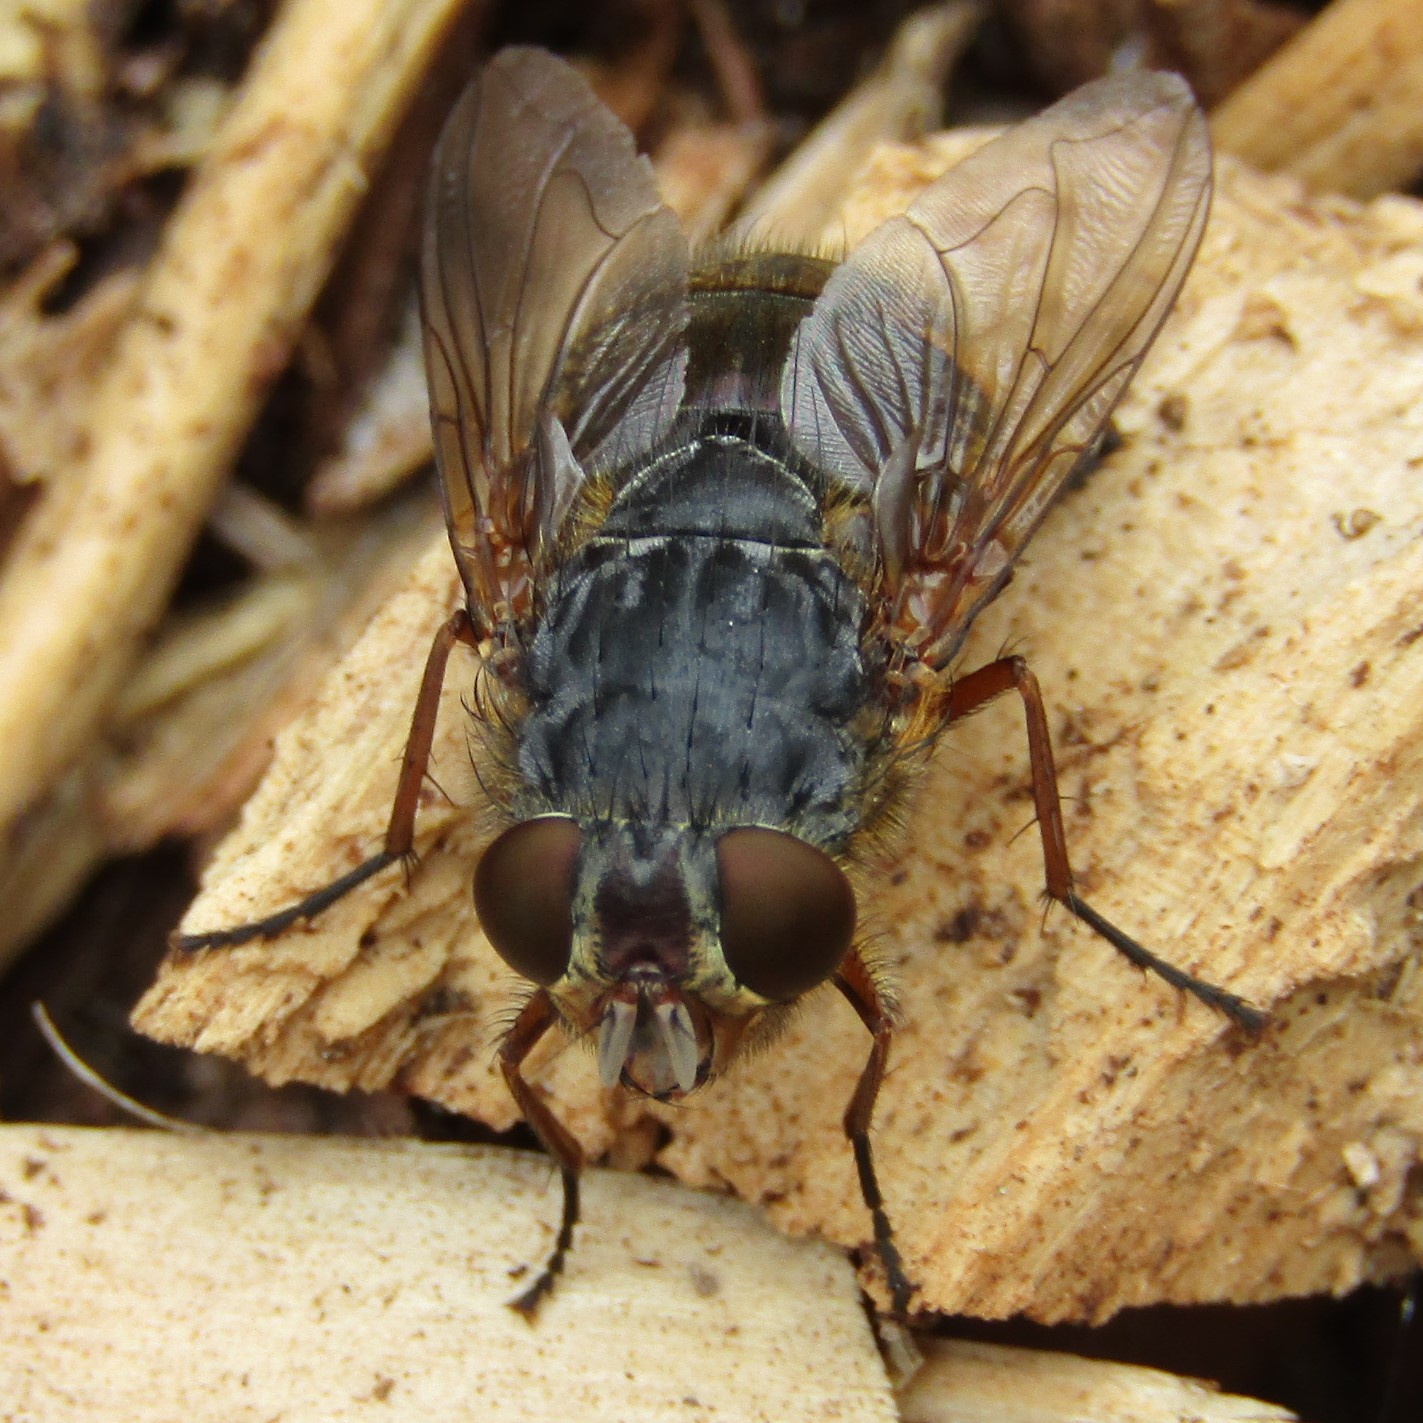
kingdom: Animalia
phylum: Arthropoda
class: Insecta
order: Diptera
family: Calliphoridae
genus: Calliphora
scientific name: Calliphora stygia
